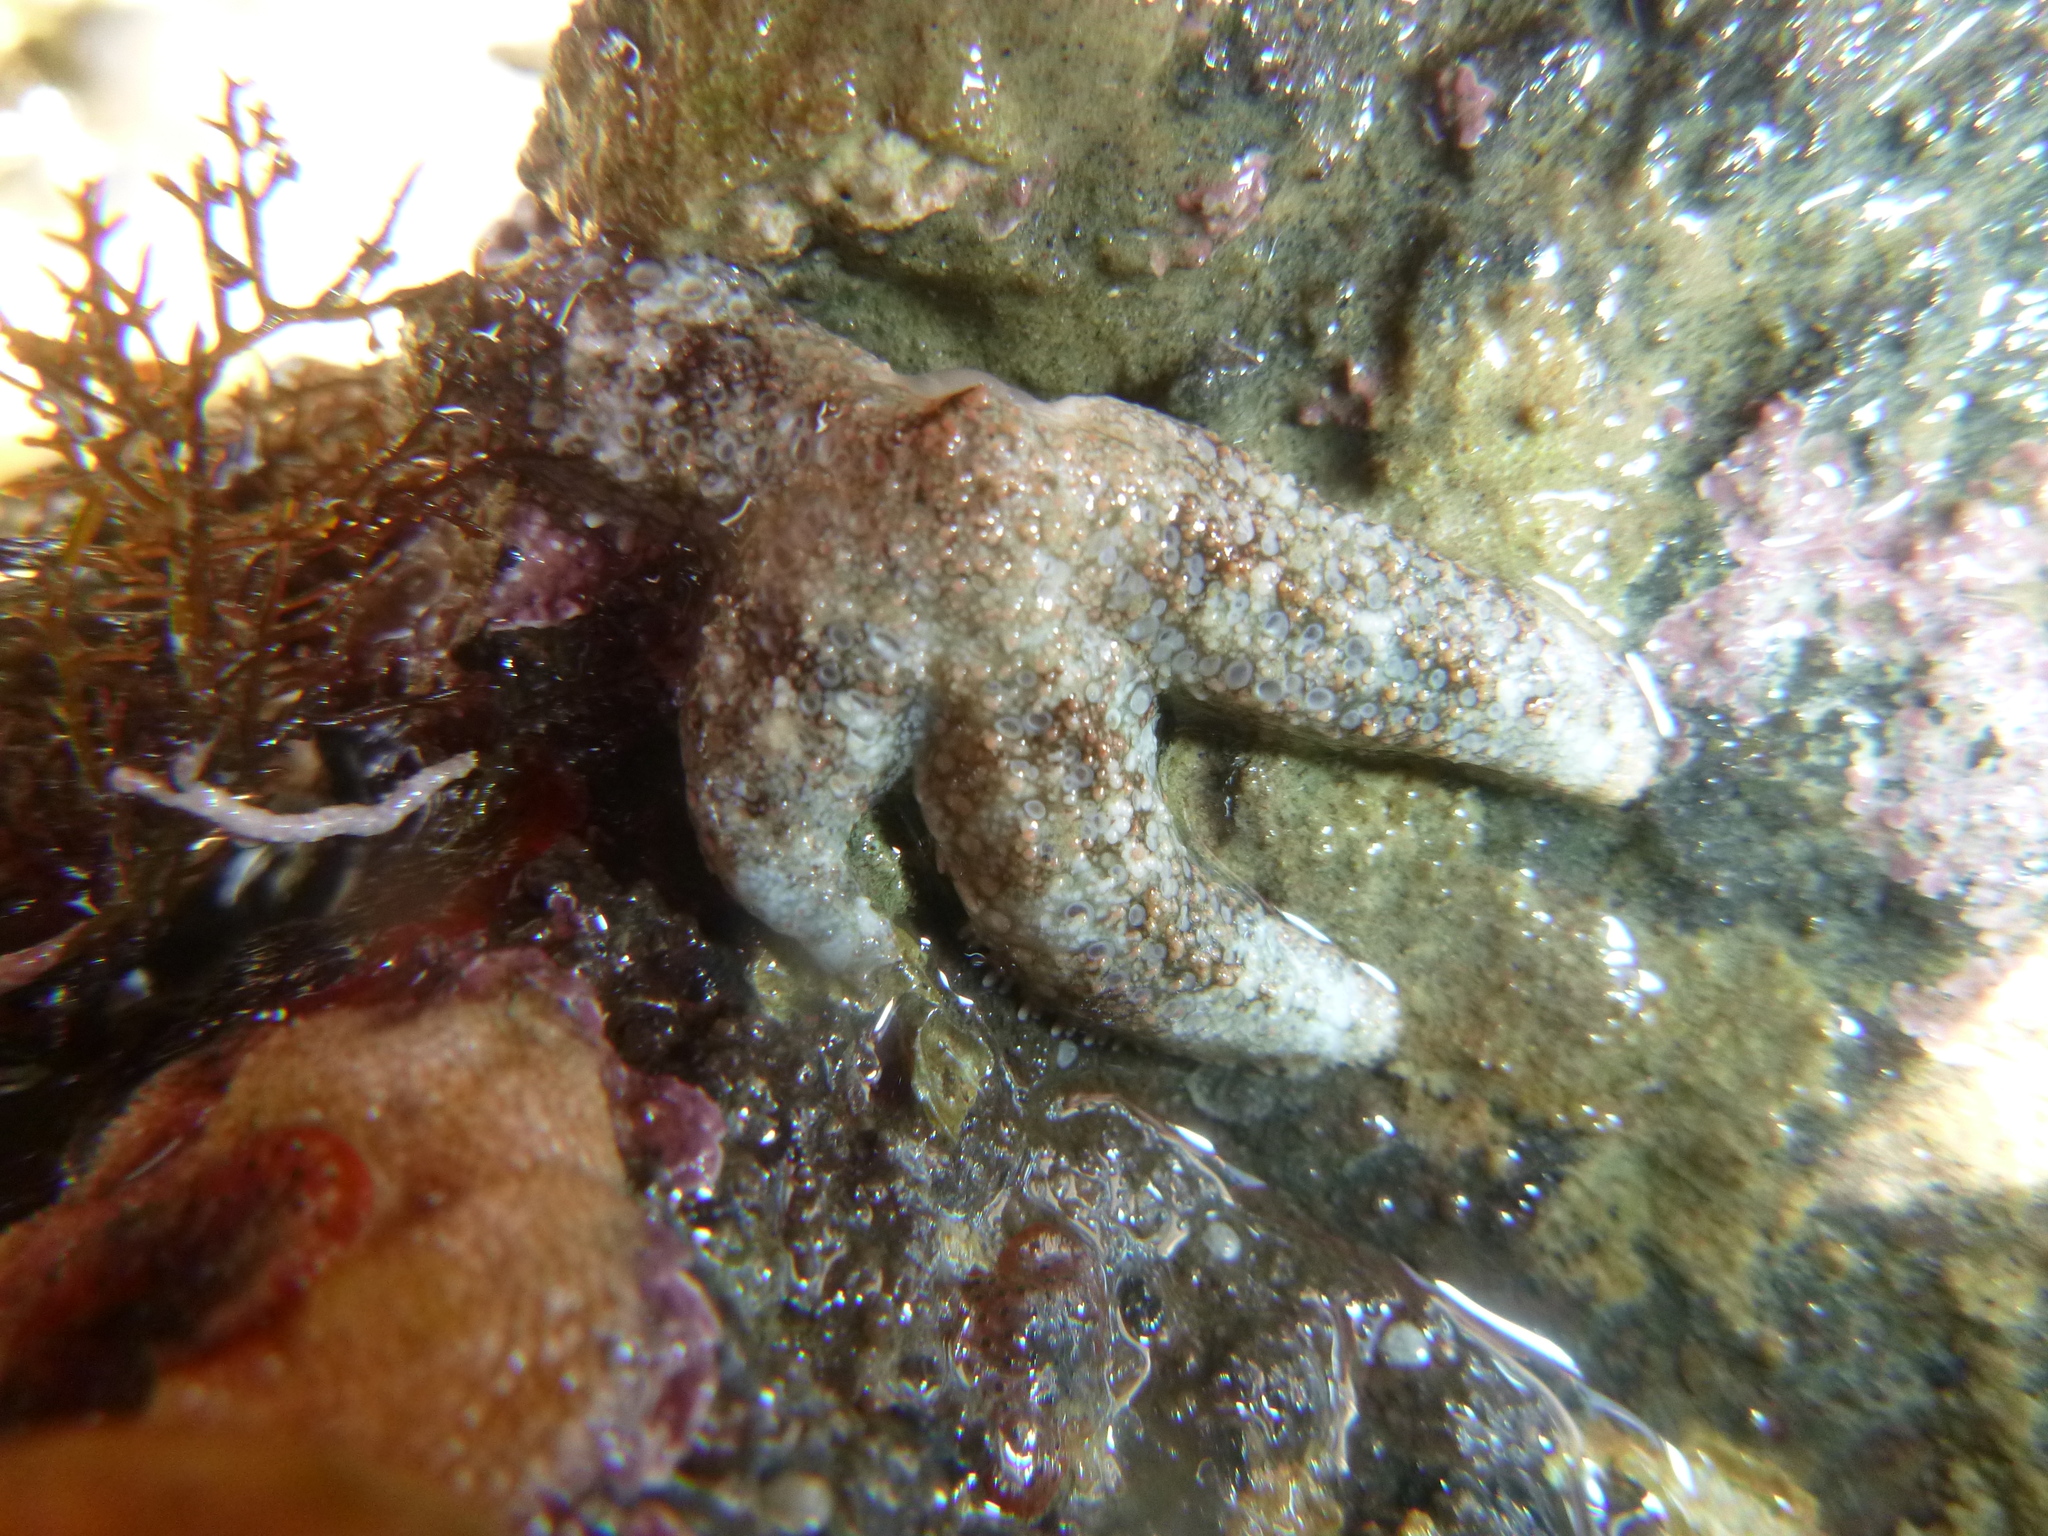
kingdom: Animalia
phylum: Echinodermata
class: Asteroidea
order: Forcipulatida
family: Stichasteridae
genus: Allostichaster
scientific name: Allostichaster polyplax
